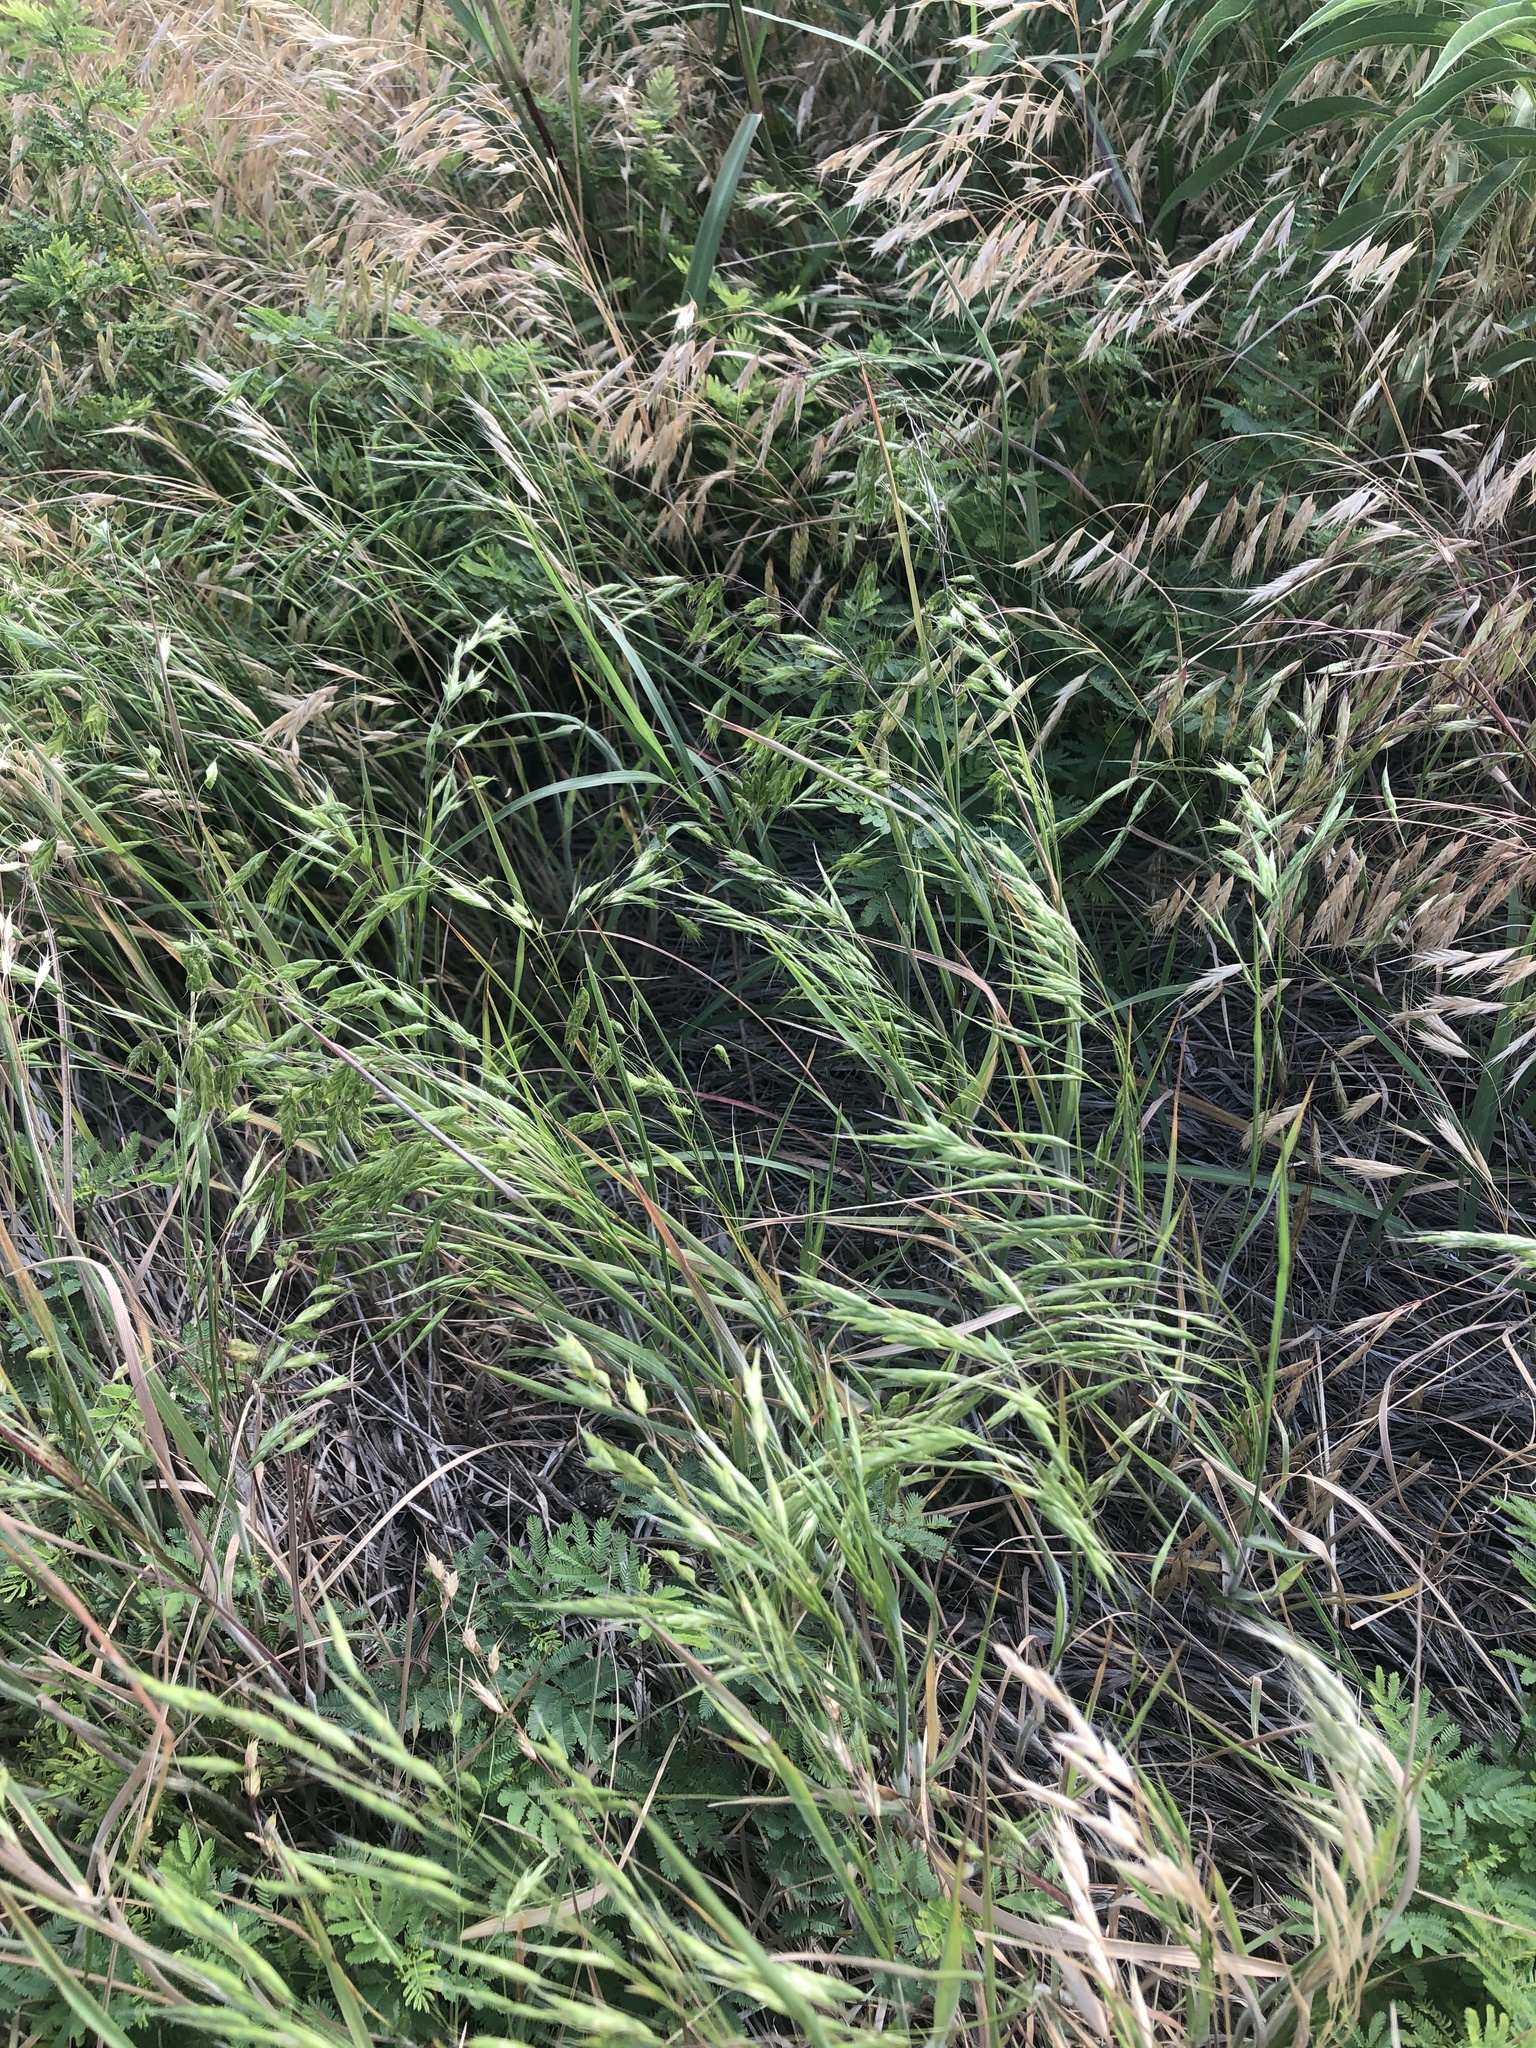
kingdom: Plantae
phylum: Tracheophyta
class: Liliopsida
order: Poales
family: Poaceae
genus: Bromus
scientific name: Bromus japonicus
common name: Japanese brome
